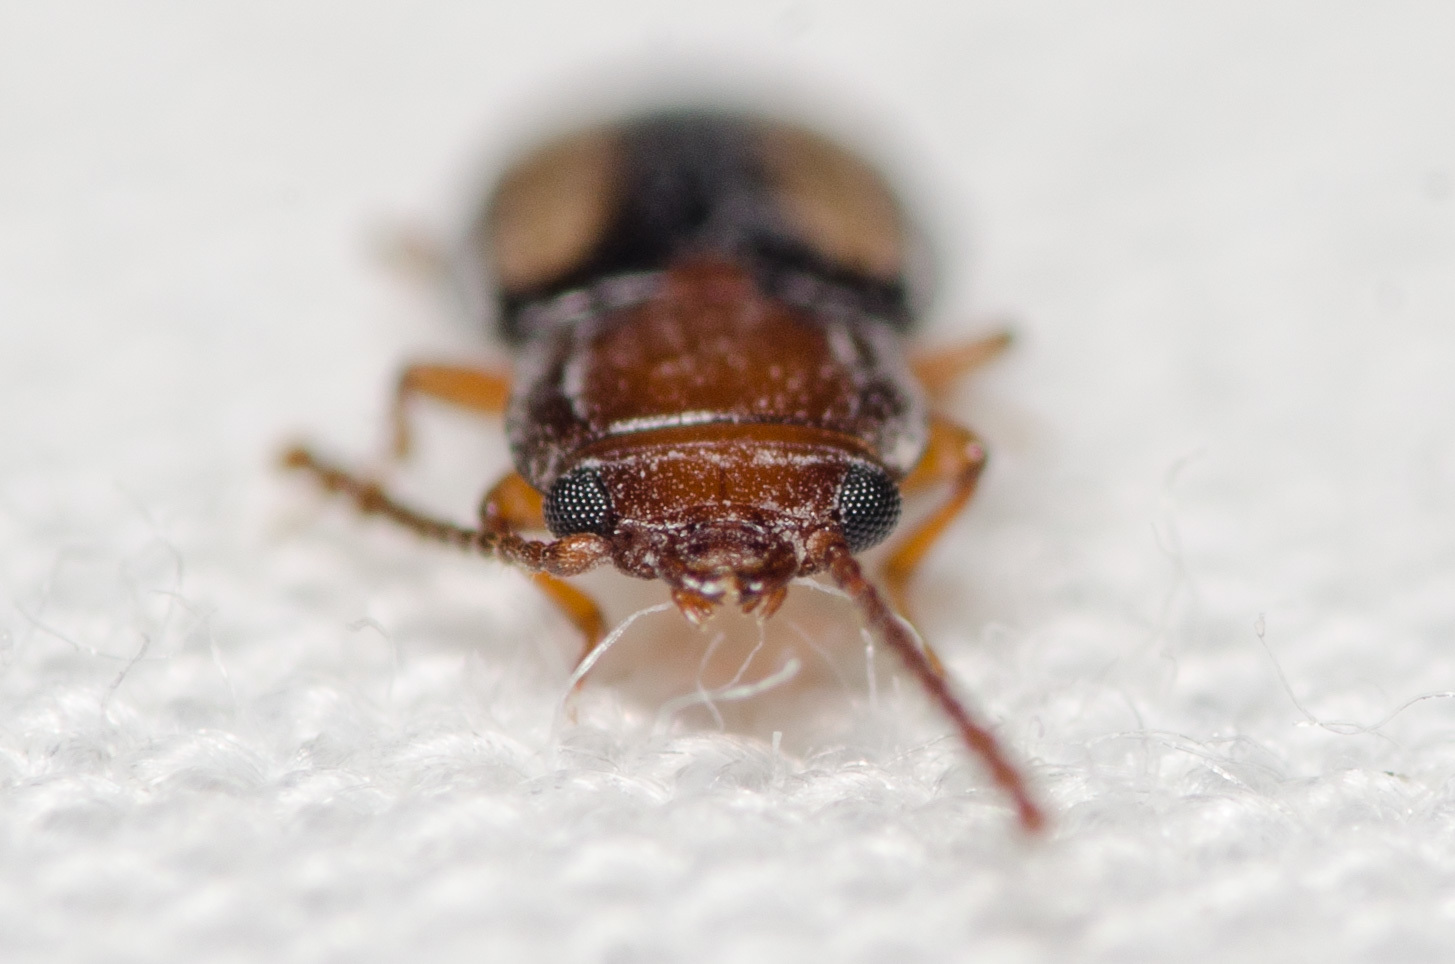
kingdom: Animalia
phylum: Arthropoda
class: Insecta
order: Coleoptera
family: Laemophloeidae
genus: Laemophloeus
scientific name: Laemophloeus terminalis
